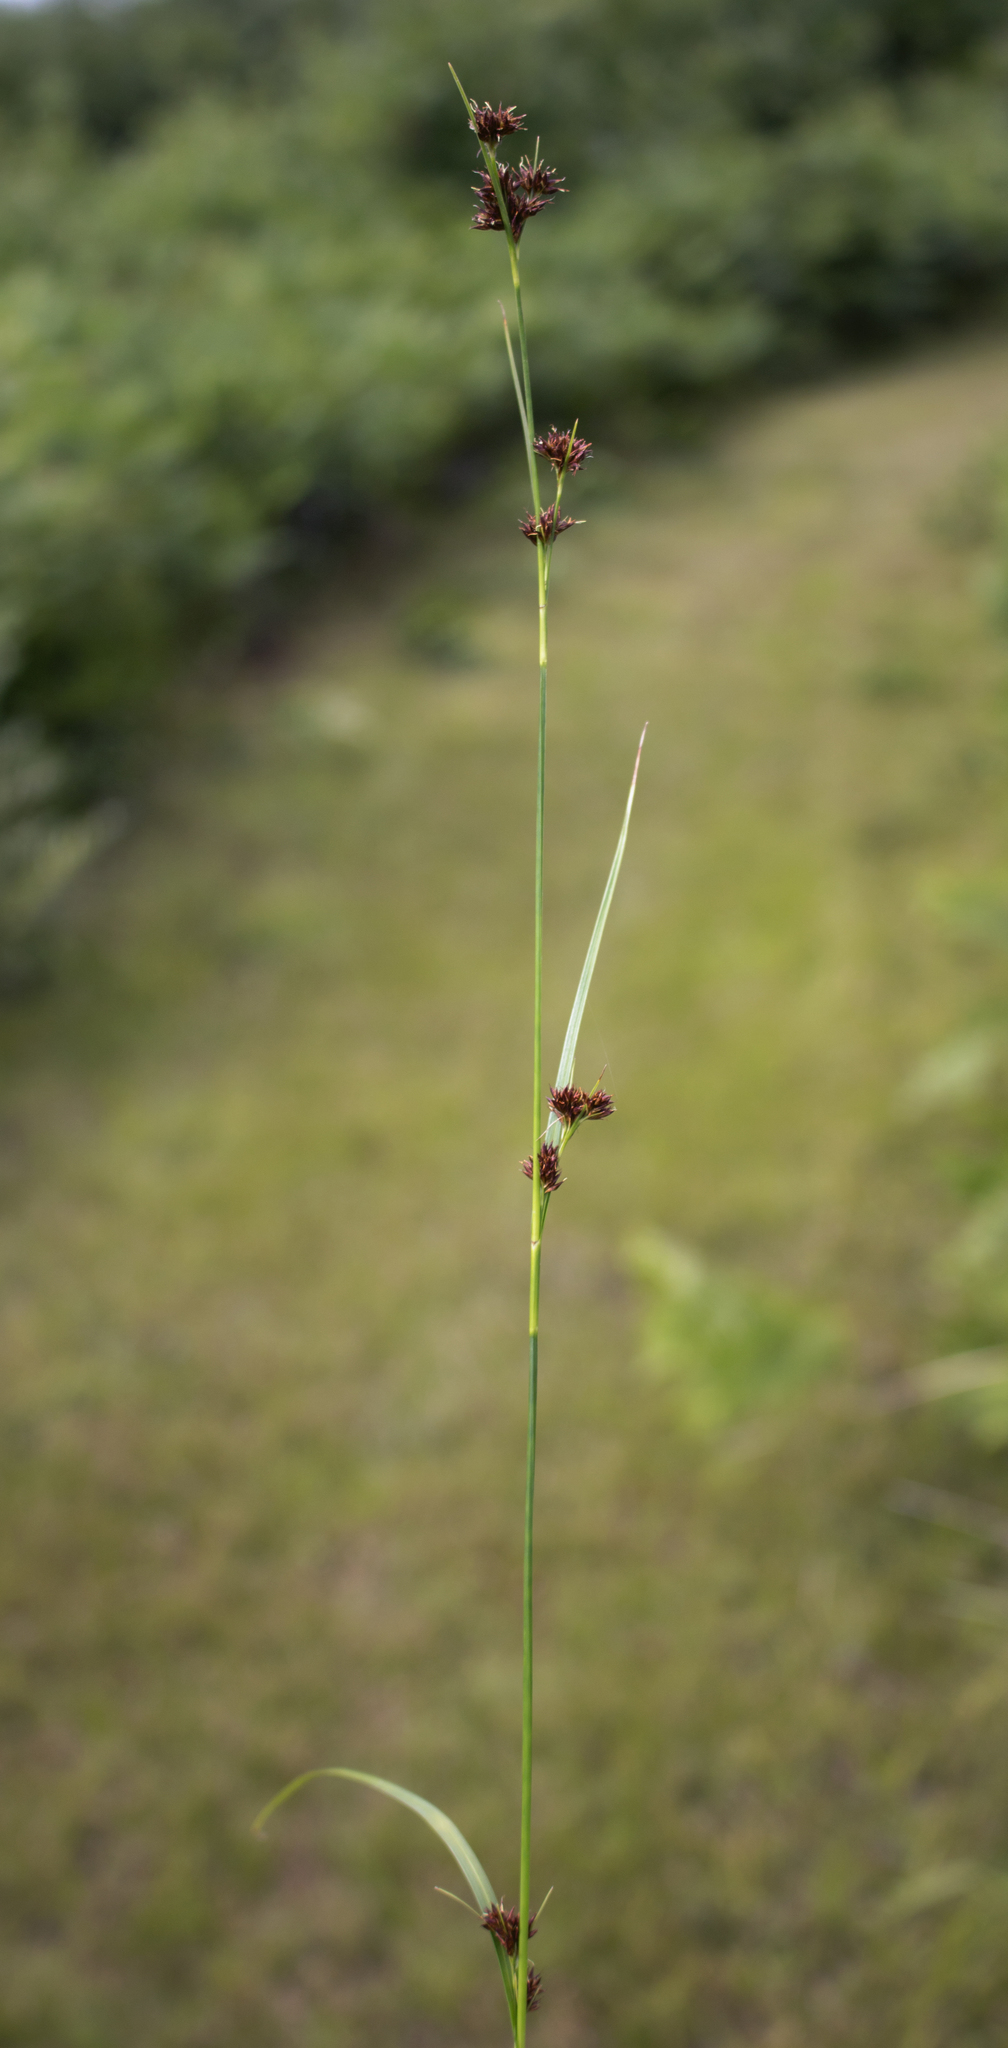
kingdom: Plantae
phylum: Tracheophyta
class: Liliopsida
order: Poales
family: Cyperaceae
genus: Cladium
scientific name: Cladium mariscoides
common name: Smooth sawgrass
